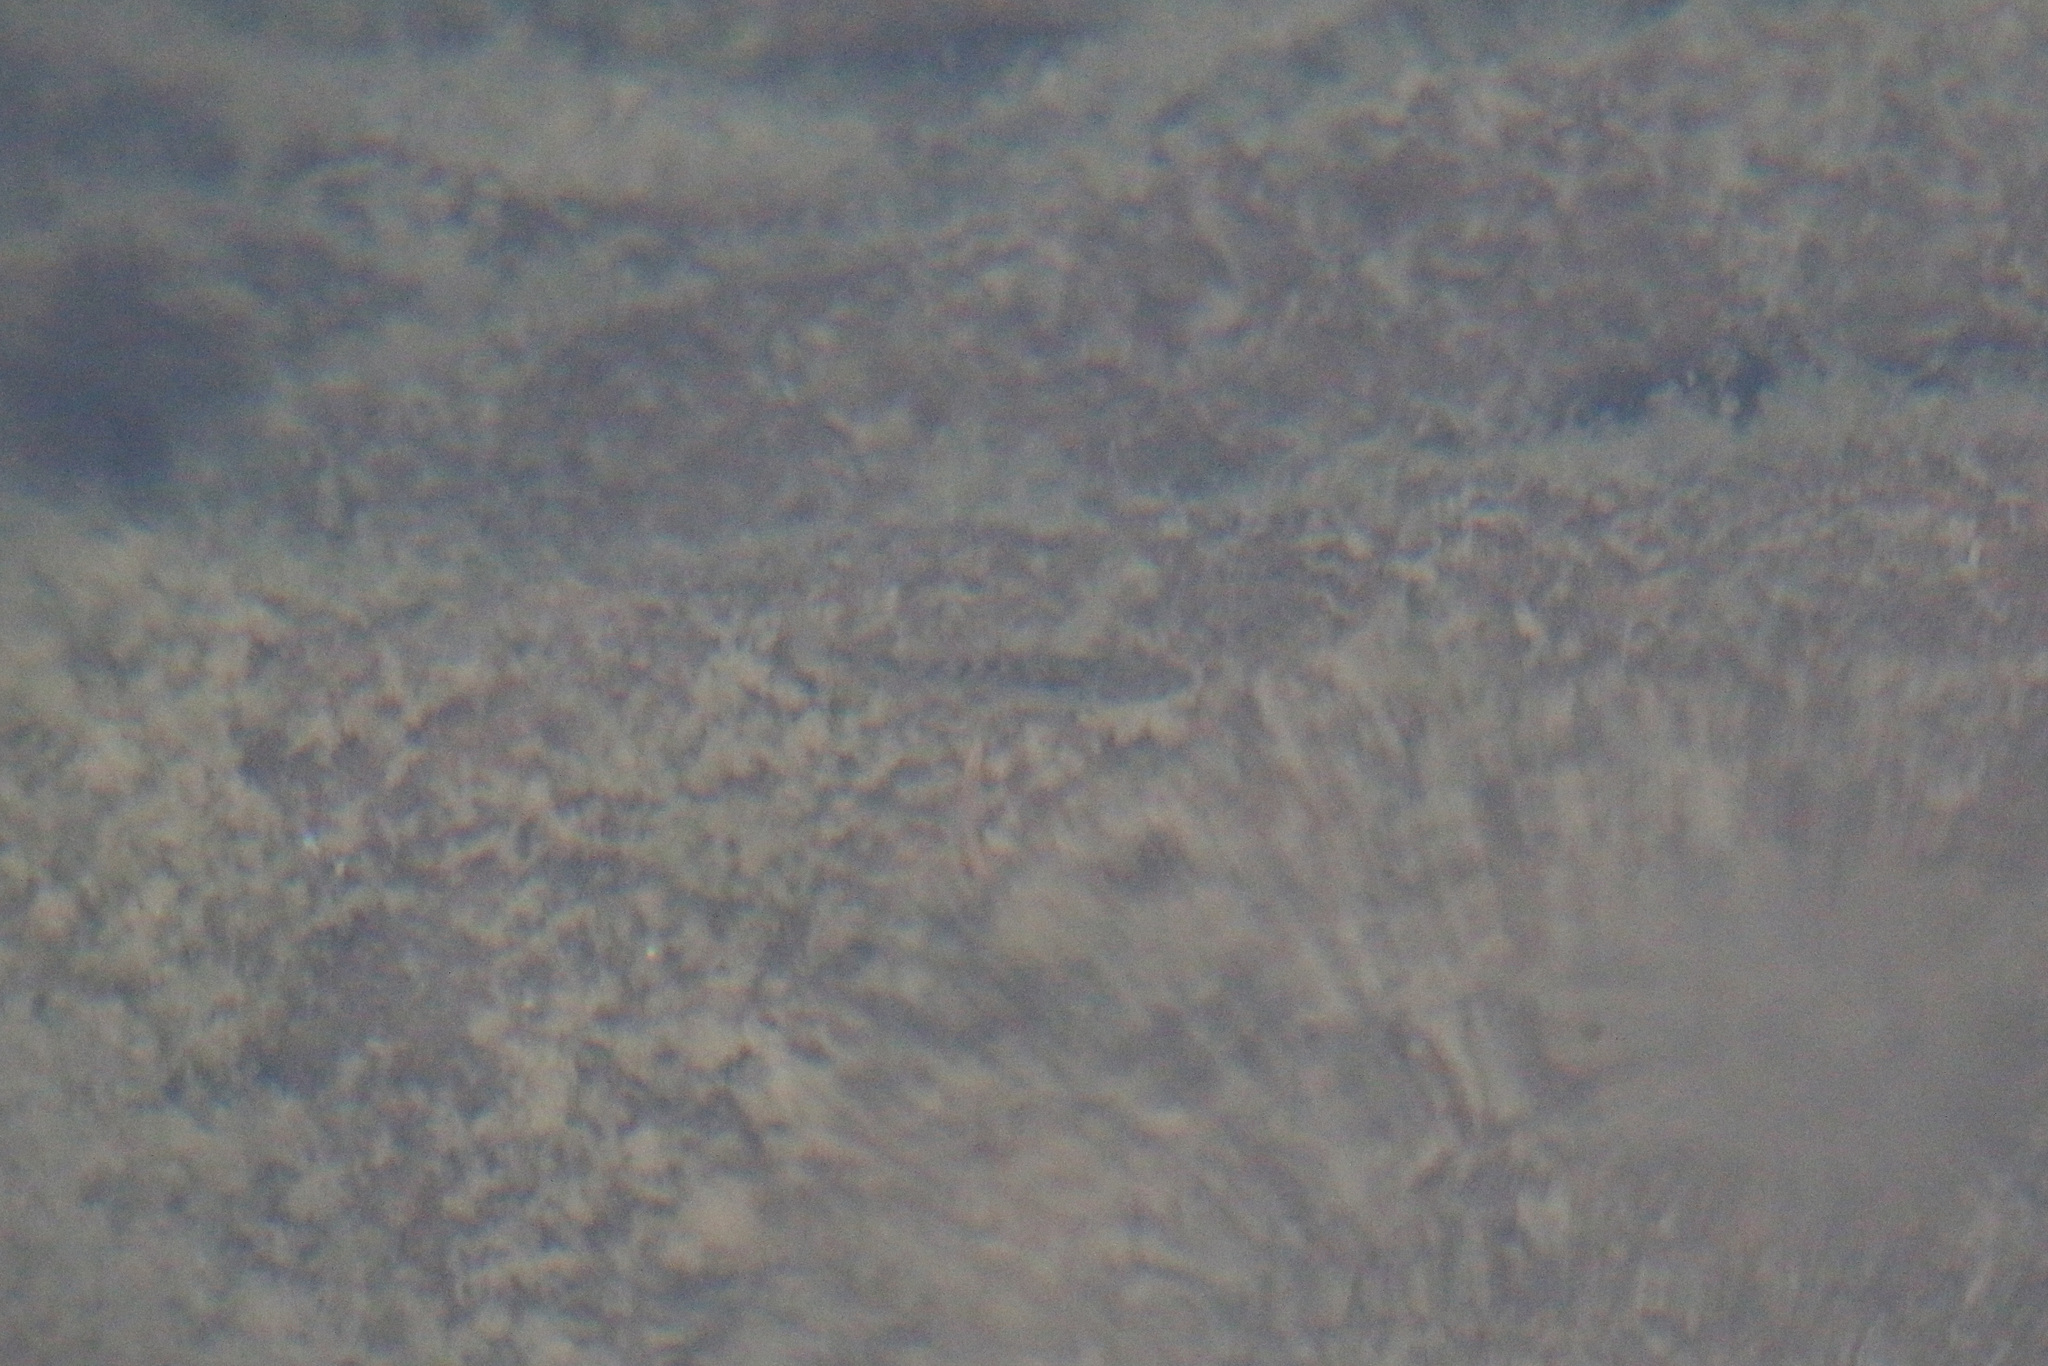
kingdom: Animalia
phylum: Chordata
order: Gasterosteiformes
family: Gasterosteidae
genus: Pungitius
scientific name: Pungitius pungitius
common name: Nine-spined stickleback
